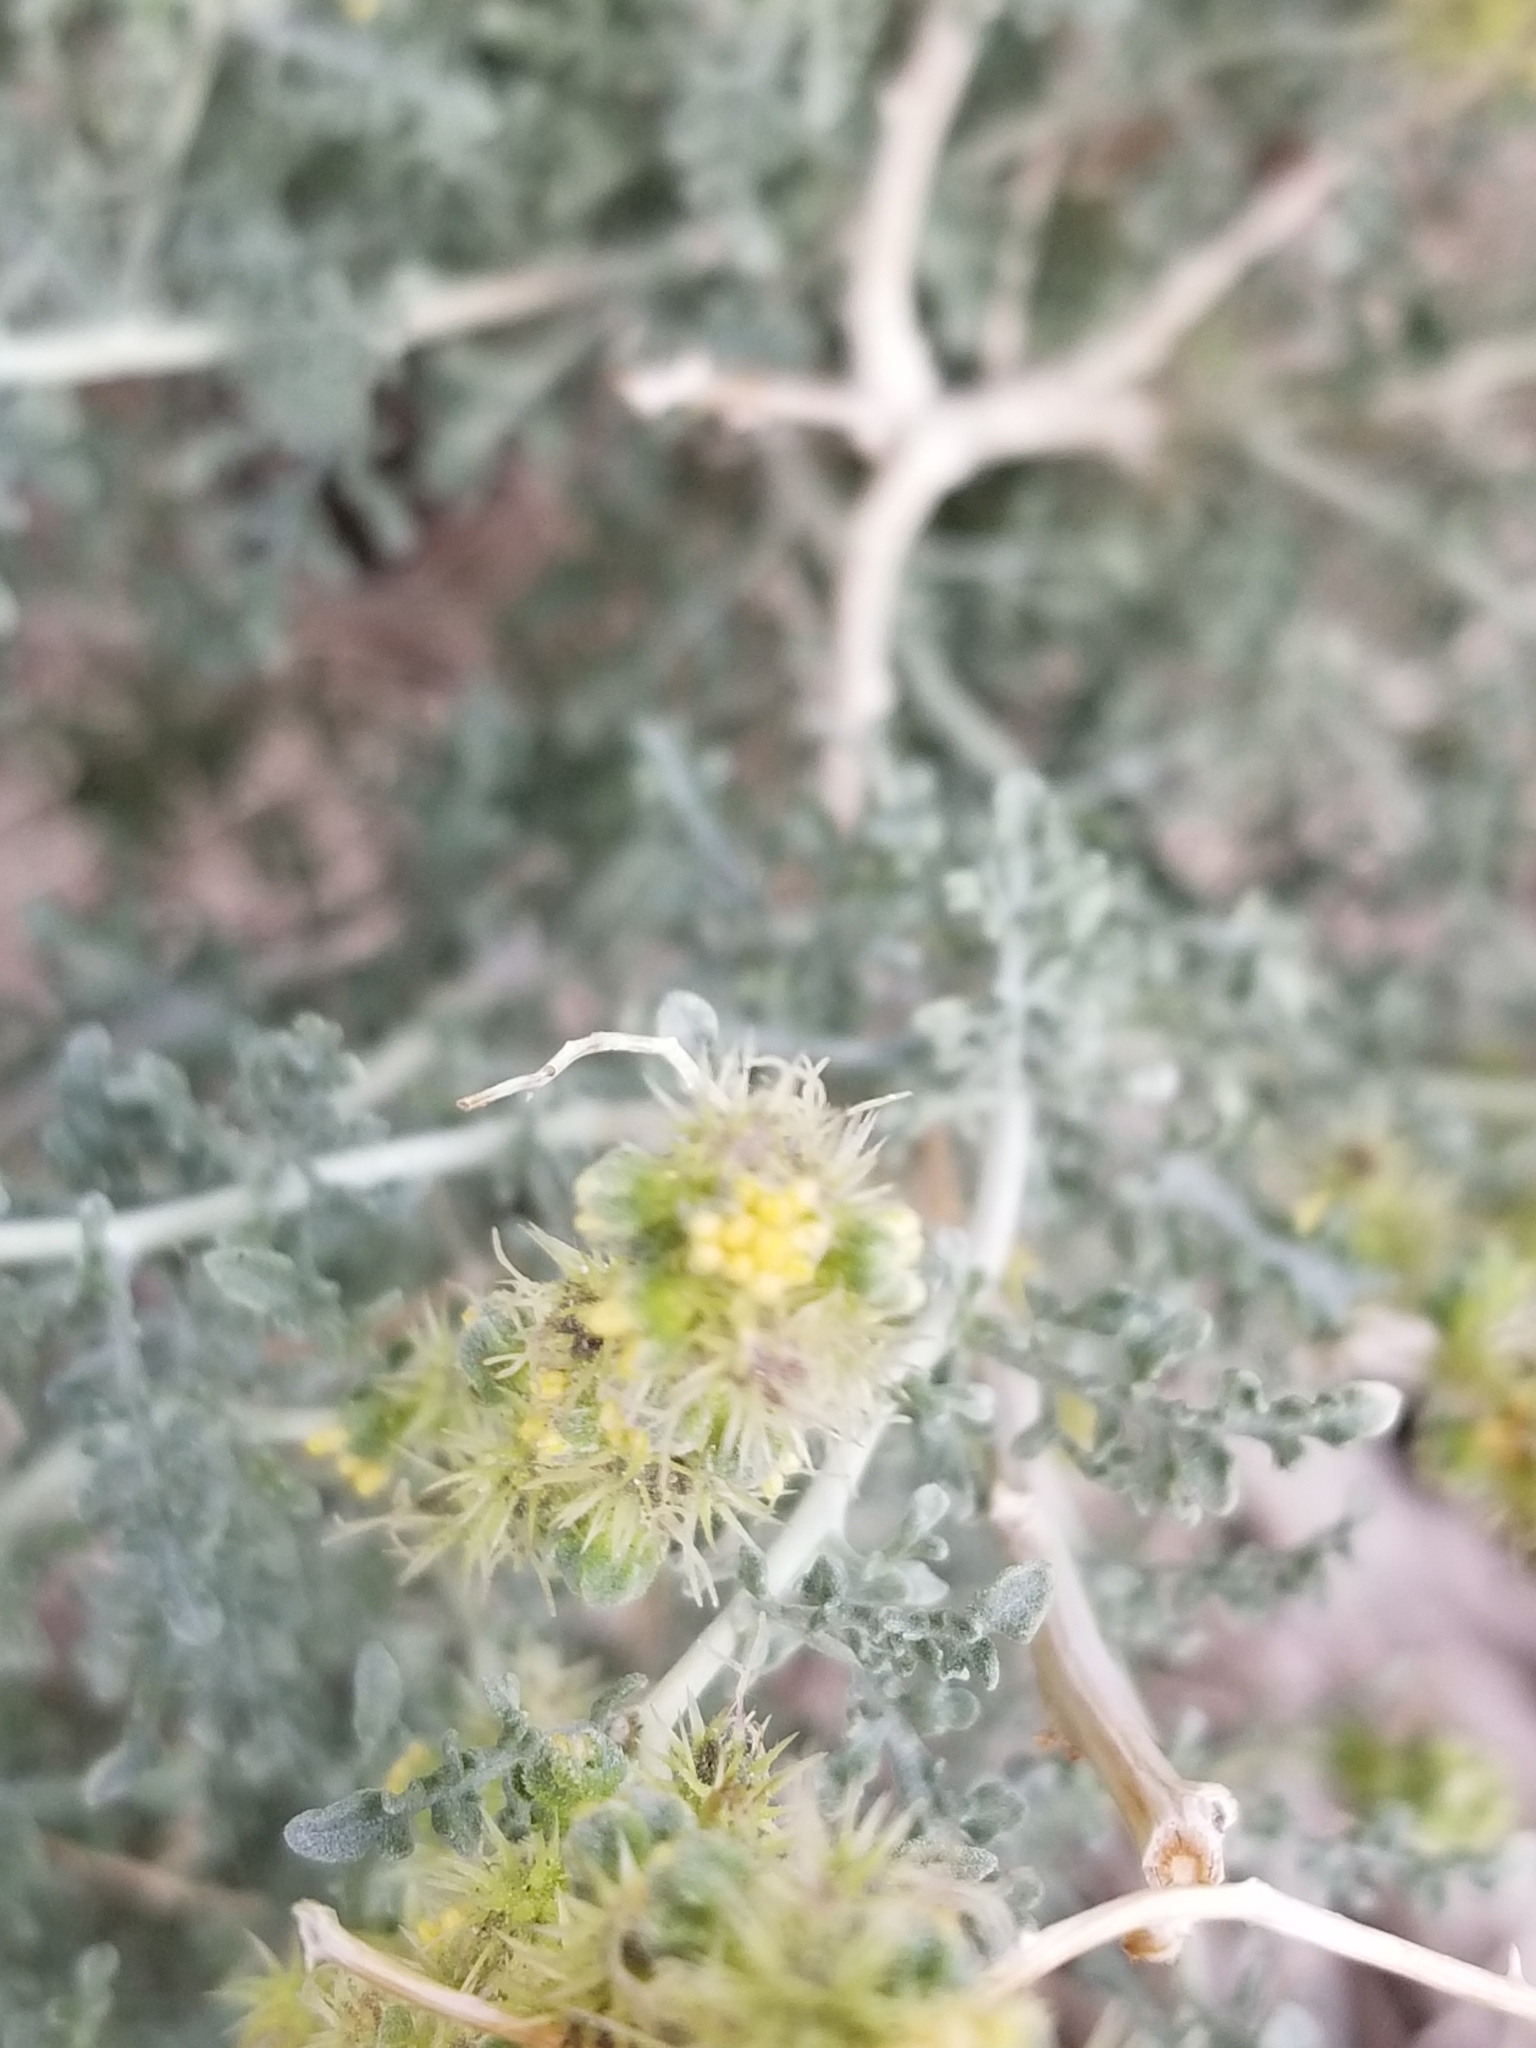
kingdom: Plantae
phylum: Tracheophyta
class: Magnoliopsida
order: Asterales
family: Asteraceae
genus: Ambrosia
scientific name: Ambrosia dumosa
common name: Bur-sage
